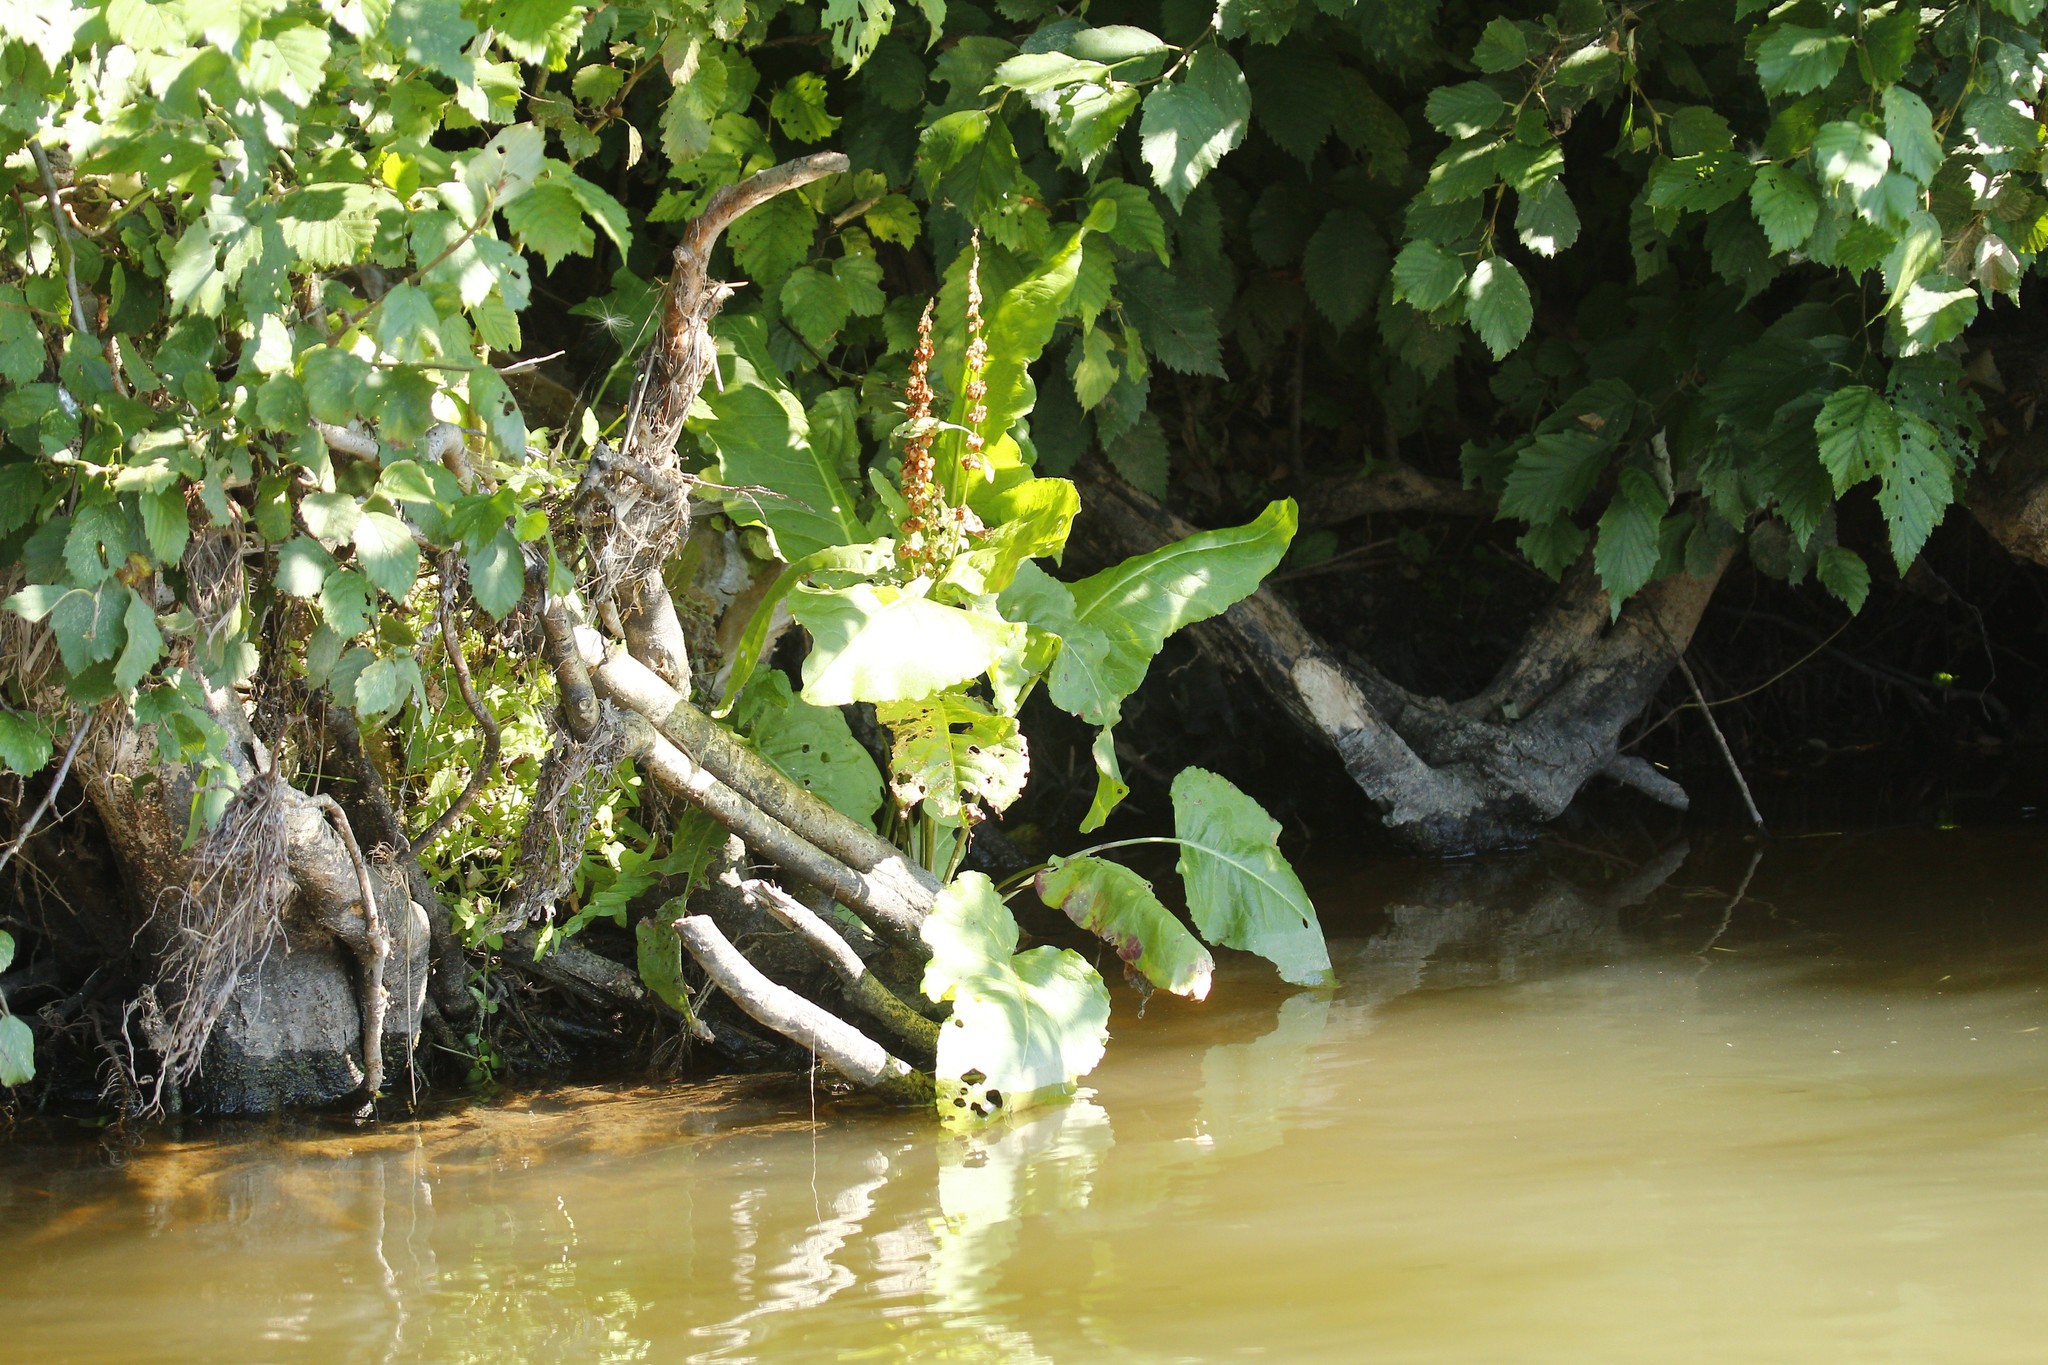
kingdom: Plantae
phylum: Tracheophyta
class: Magnoliopsida
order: Caryophyllales
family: Polygonaceae
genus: Rumex
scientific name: Rumex aquaticus
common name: Scottish dock
